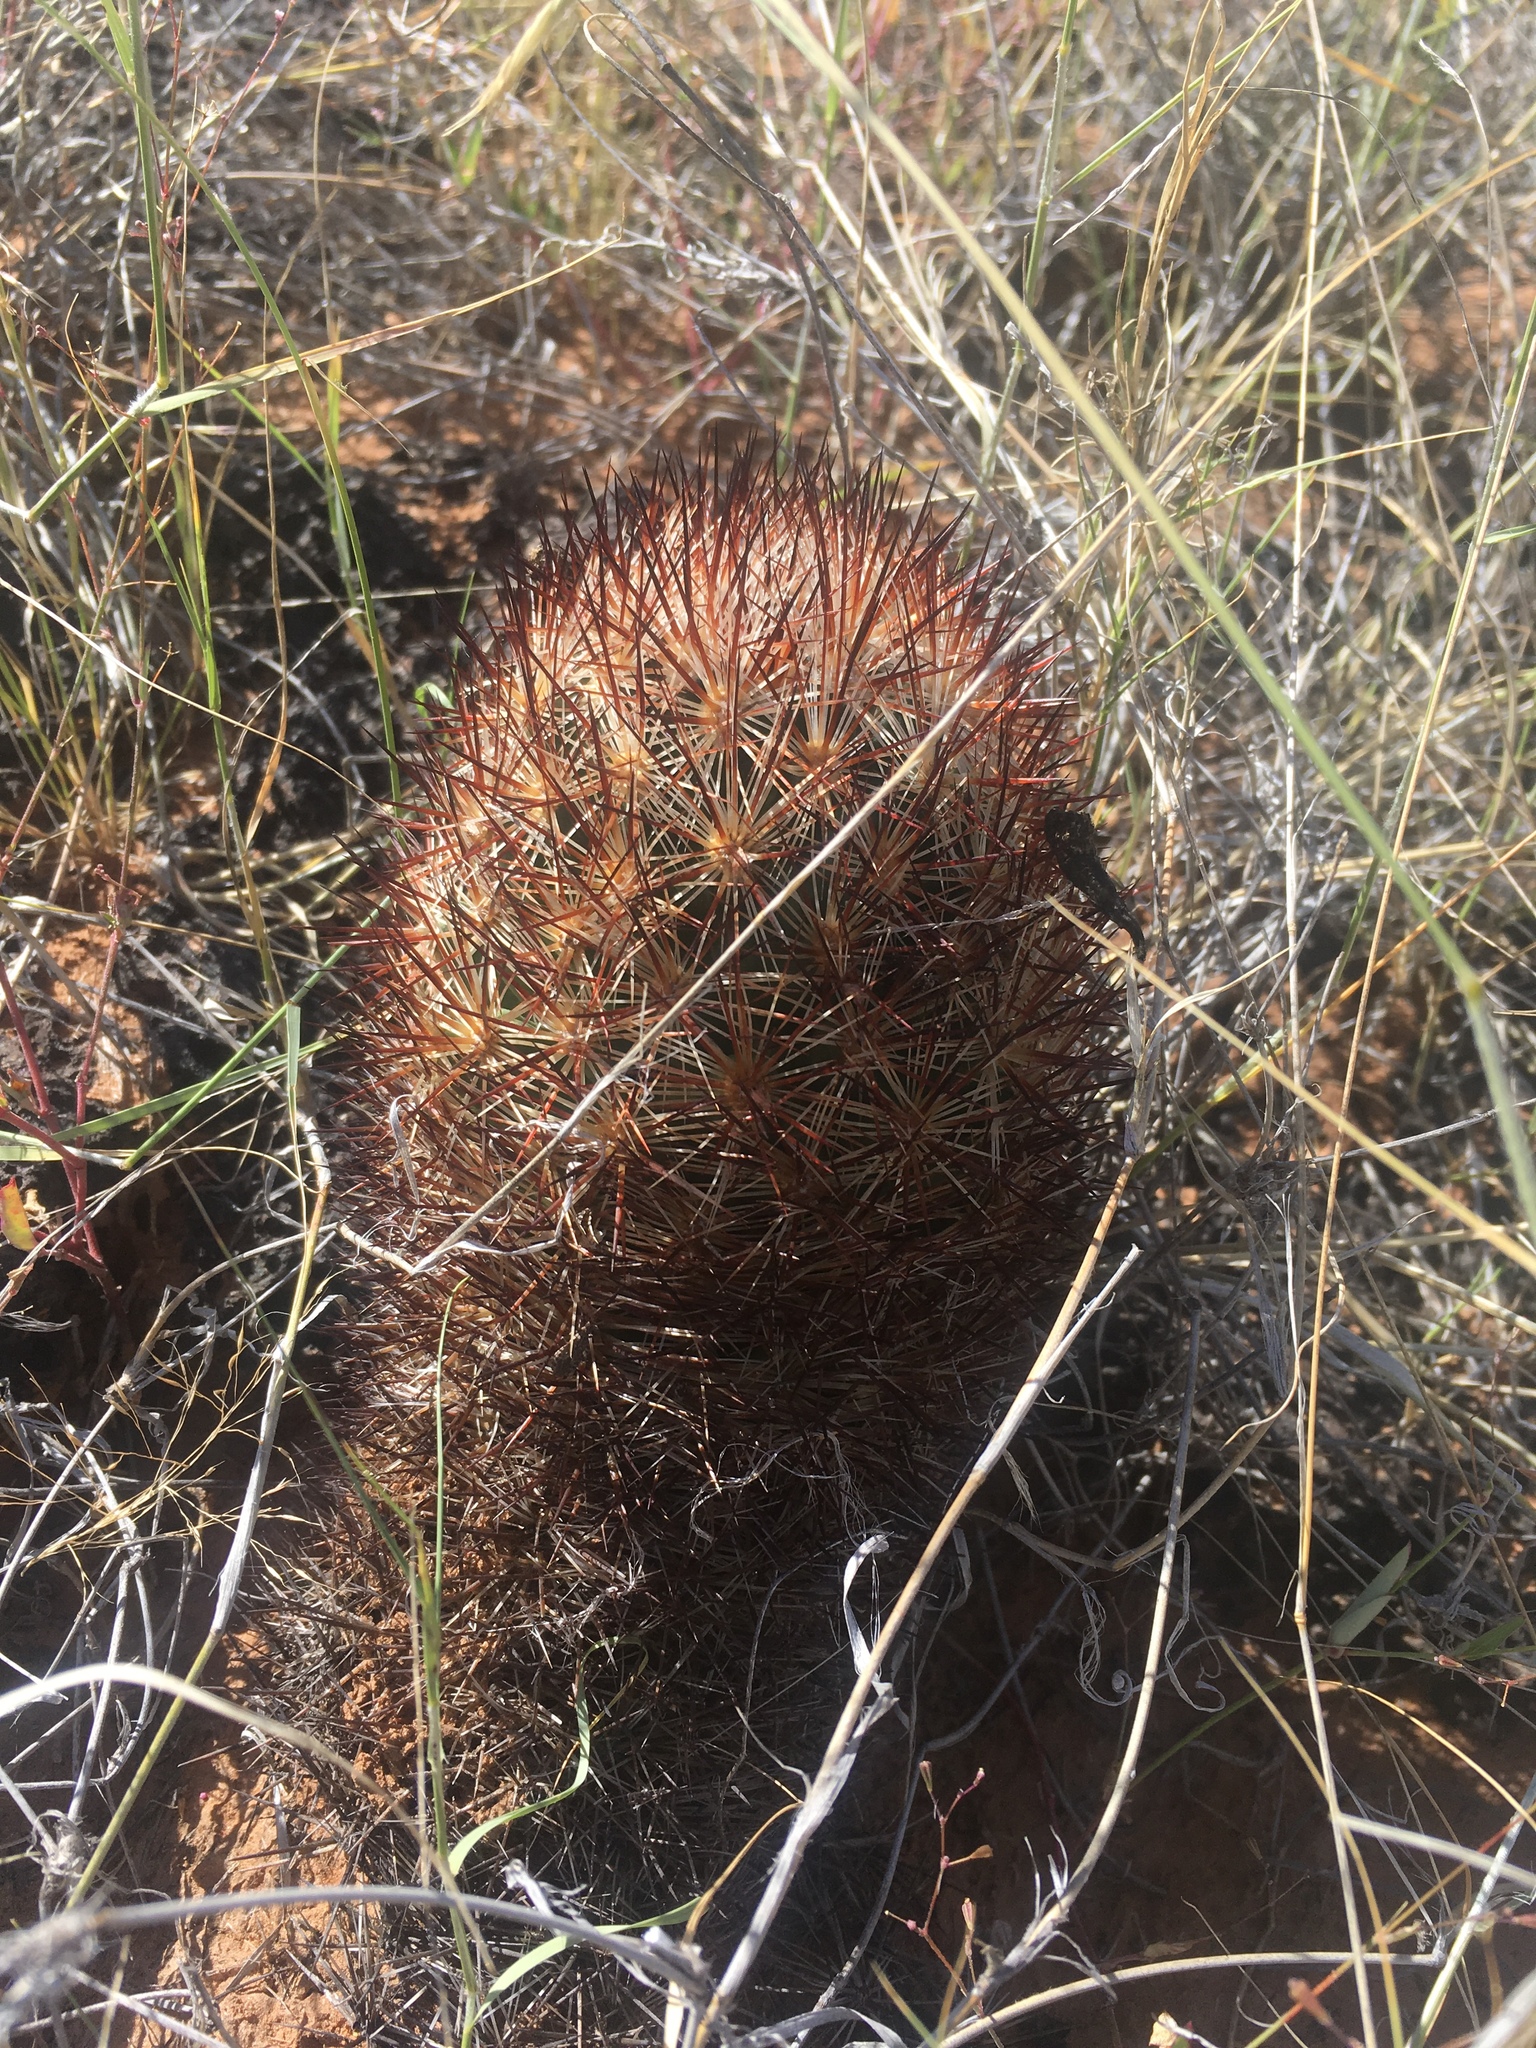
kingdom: Plantae
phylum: Tracheophyta
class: Magnoliopsida
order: Caryophyllales
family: Cactaceae
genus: Pelecyphora
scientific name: Pelecyphora vivipara
